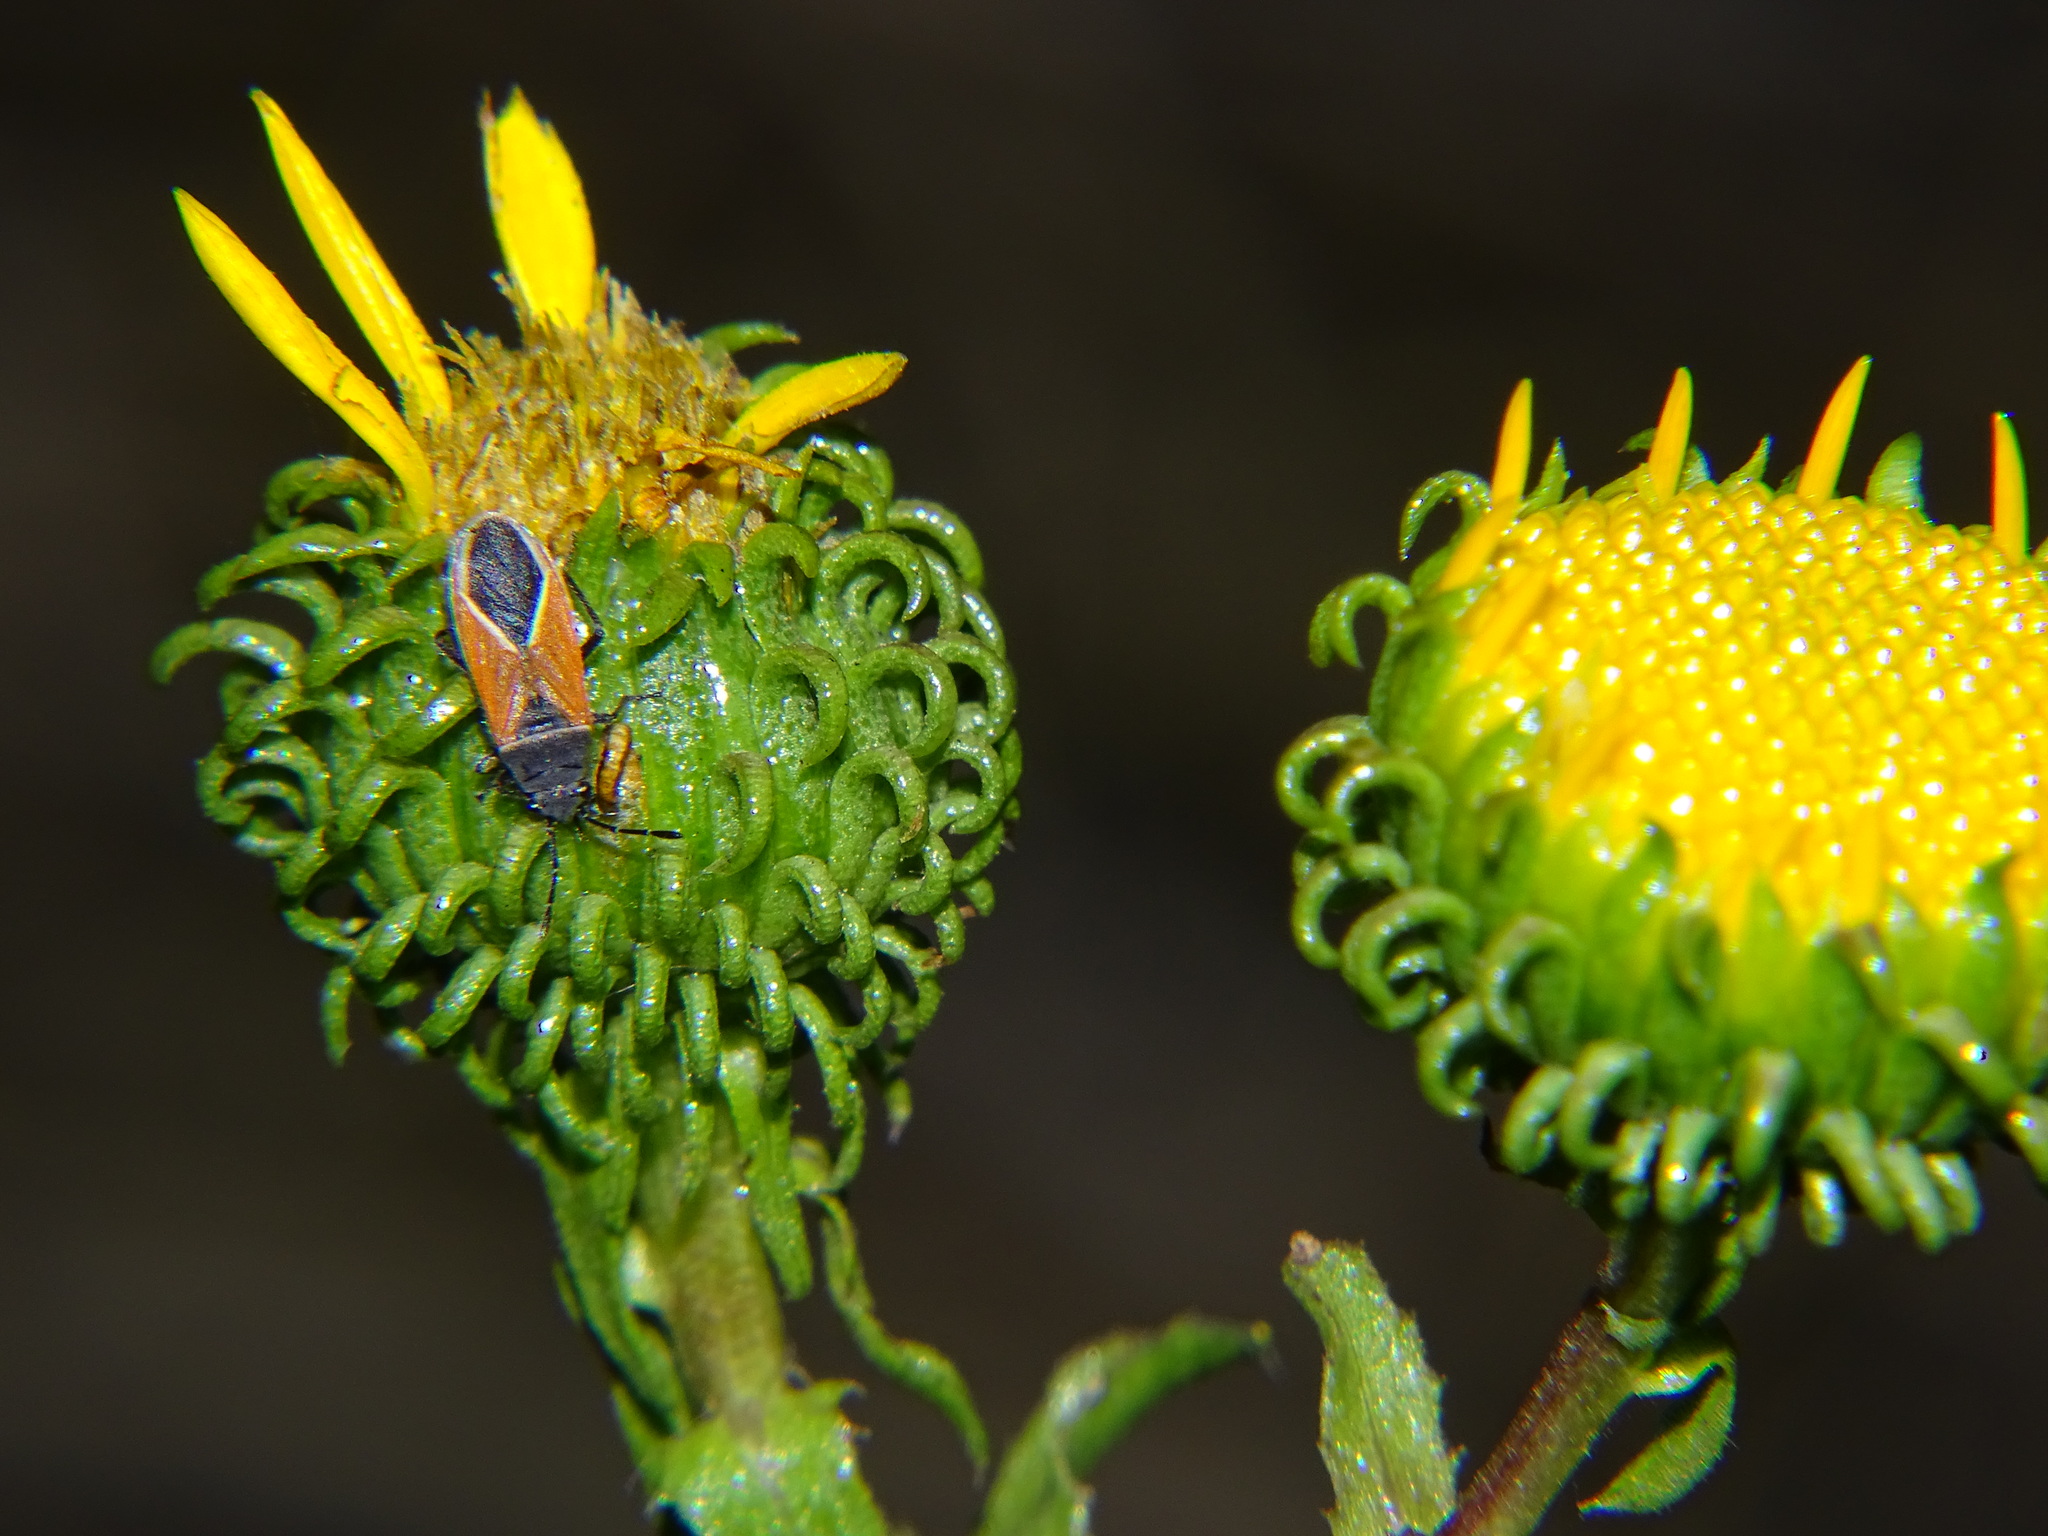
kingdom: Plantae
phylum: Tracheophyta
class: Magnoliopsida
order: Asterales
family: Asteraceae
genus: Grindelia
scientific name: Grindelia hirsutula
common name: Hairy gumweed
